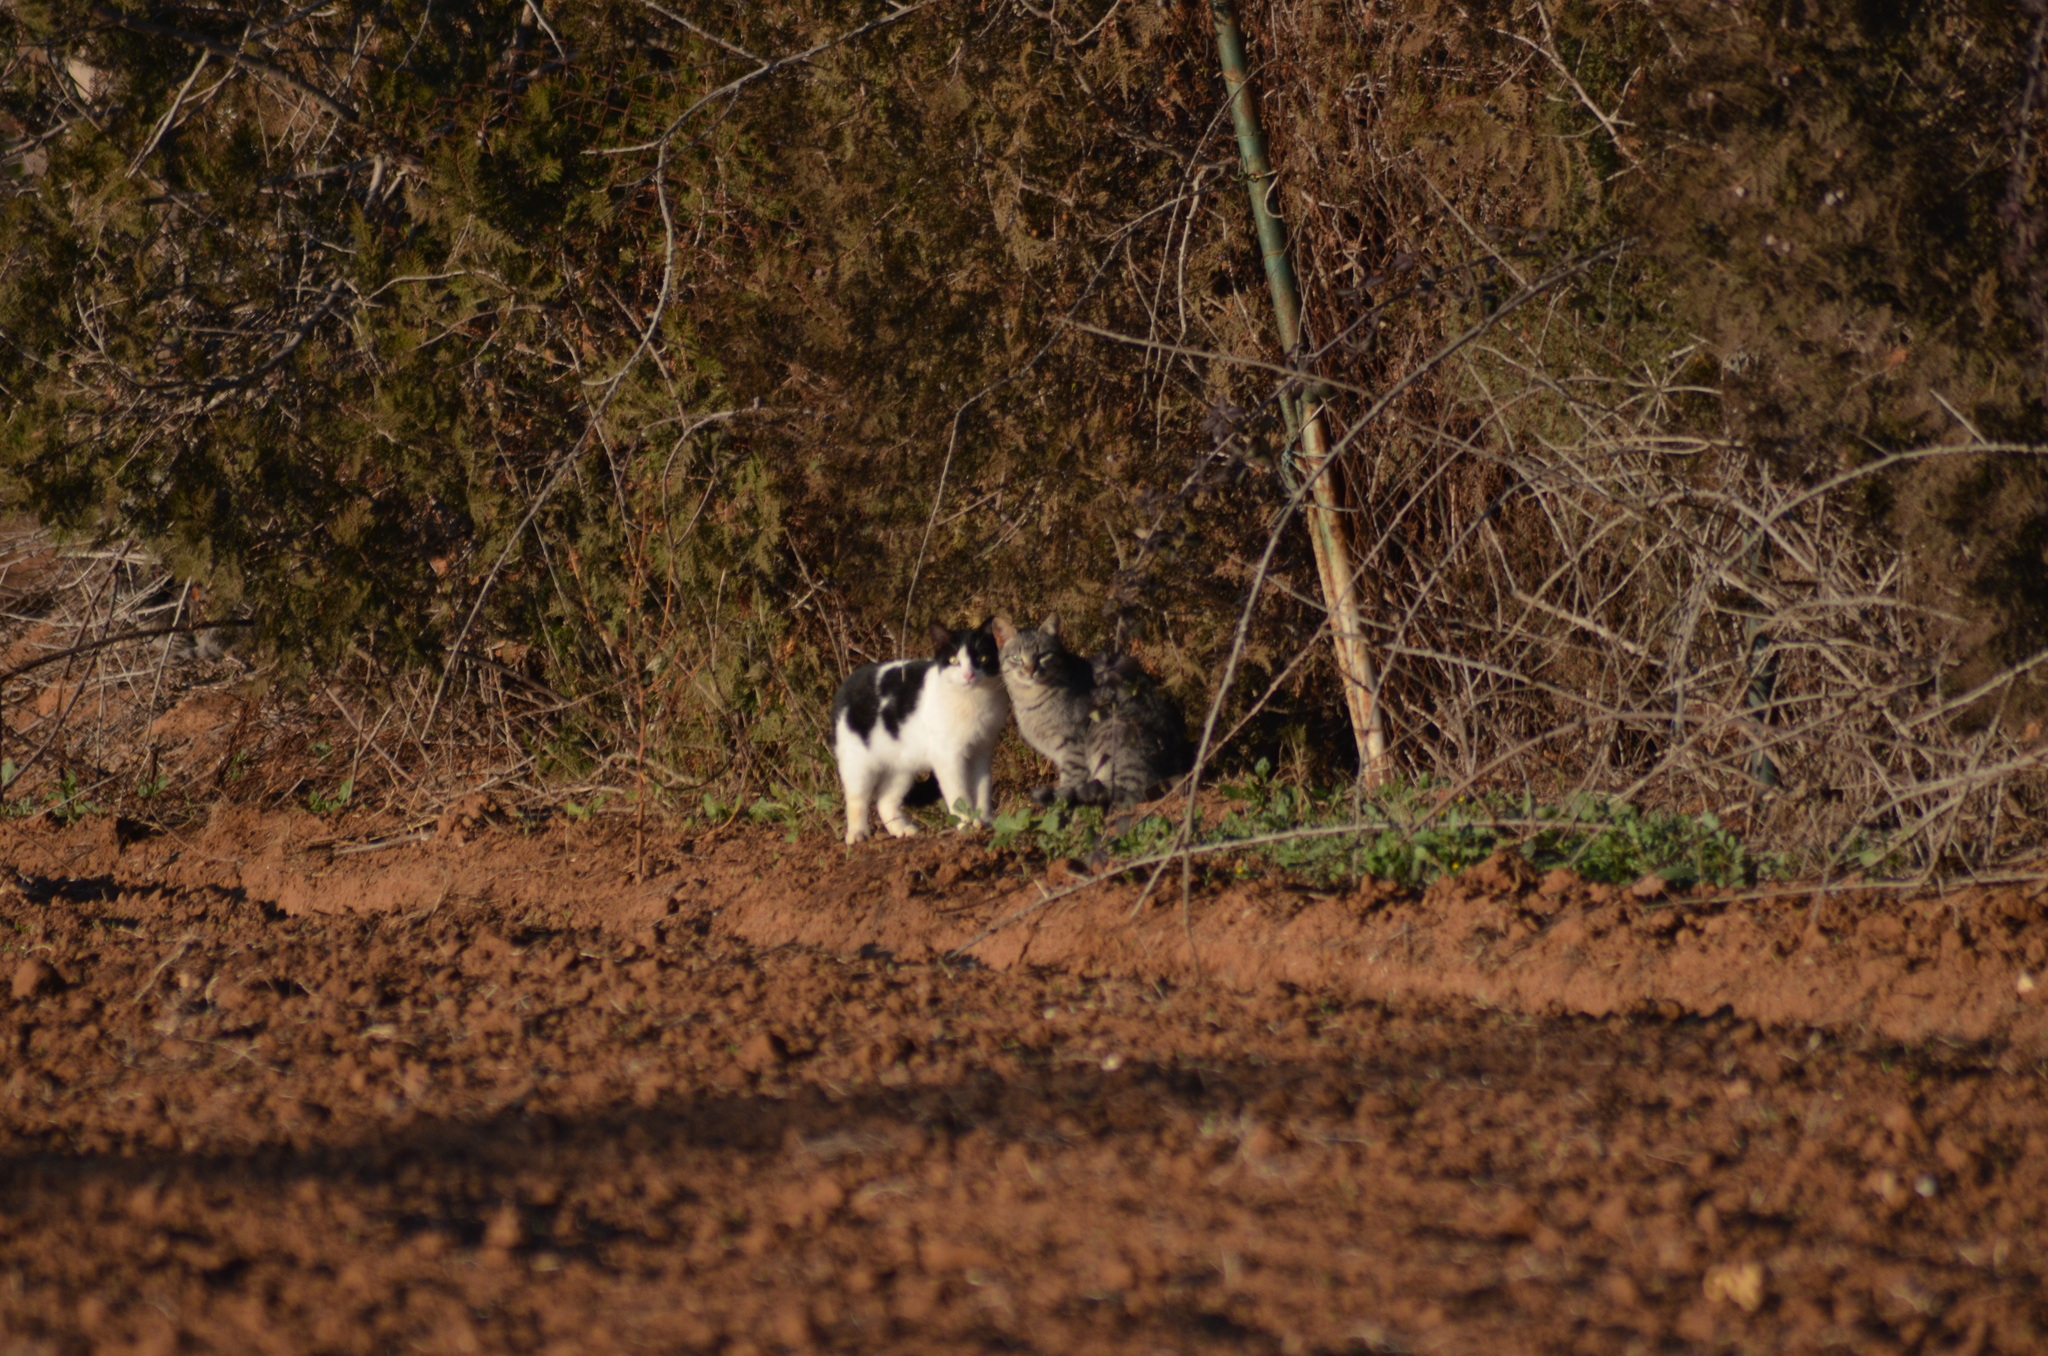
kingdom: Animalia
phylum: Chordata
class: Mammalia
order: Carnivora
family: Felidae
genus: Felis
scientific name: Felis catus
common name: Domestic cat
